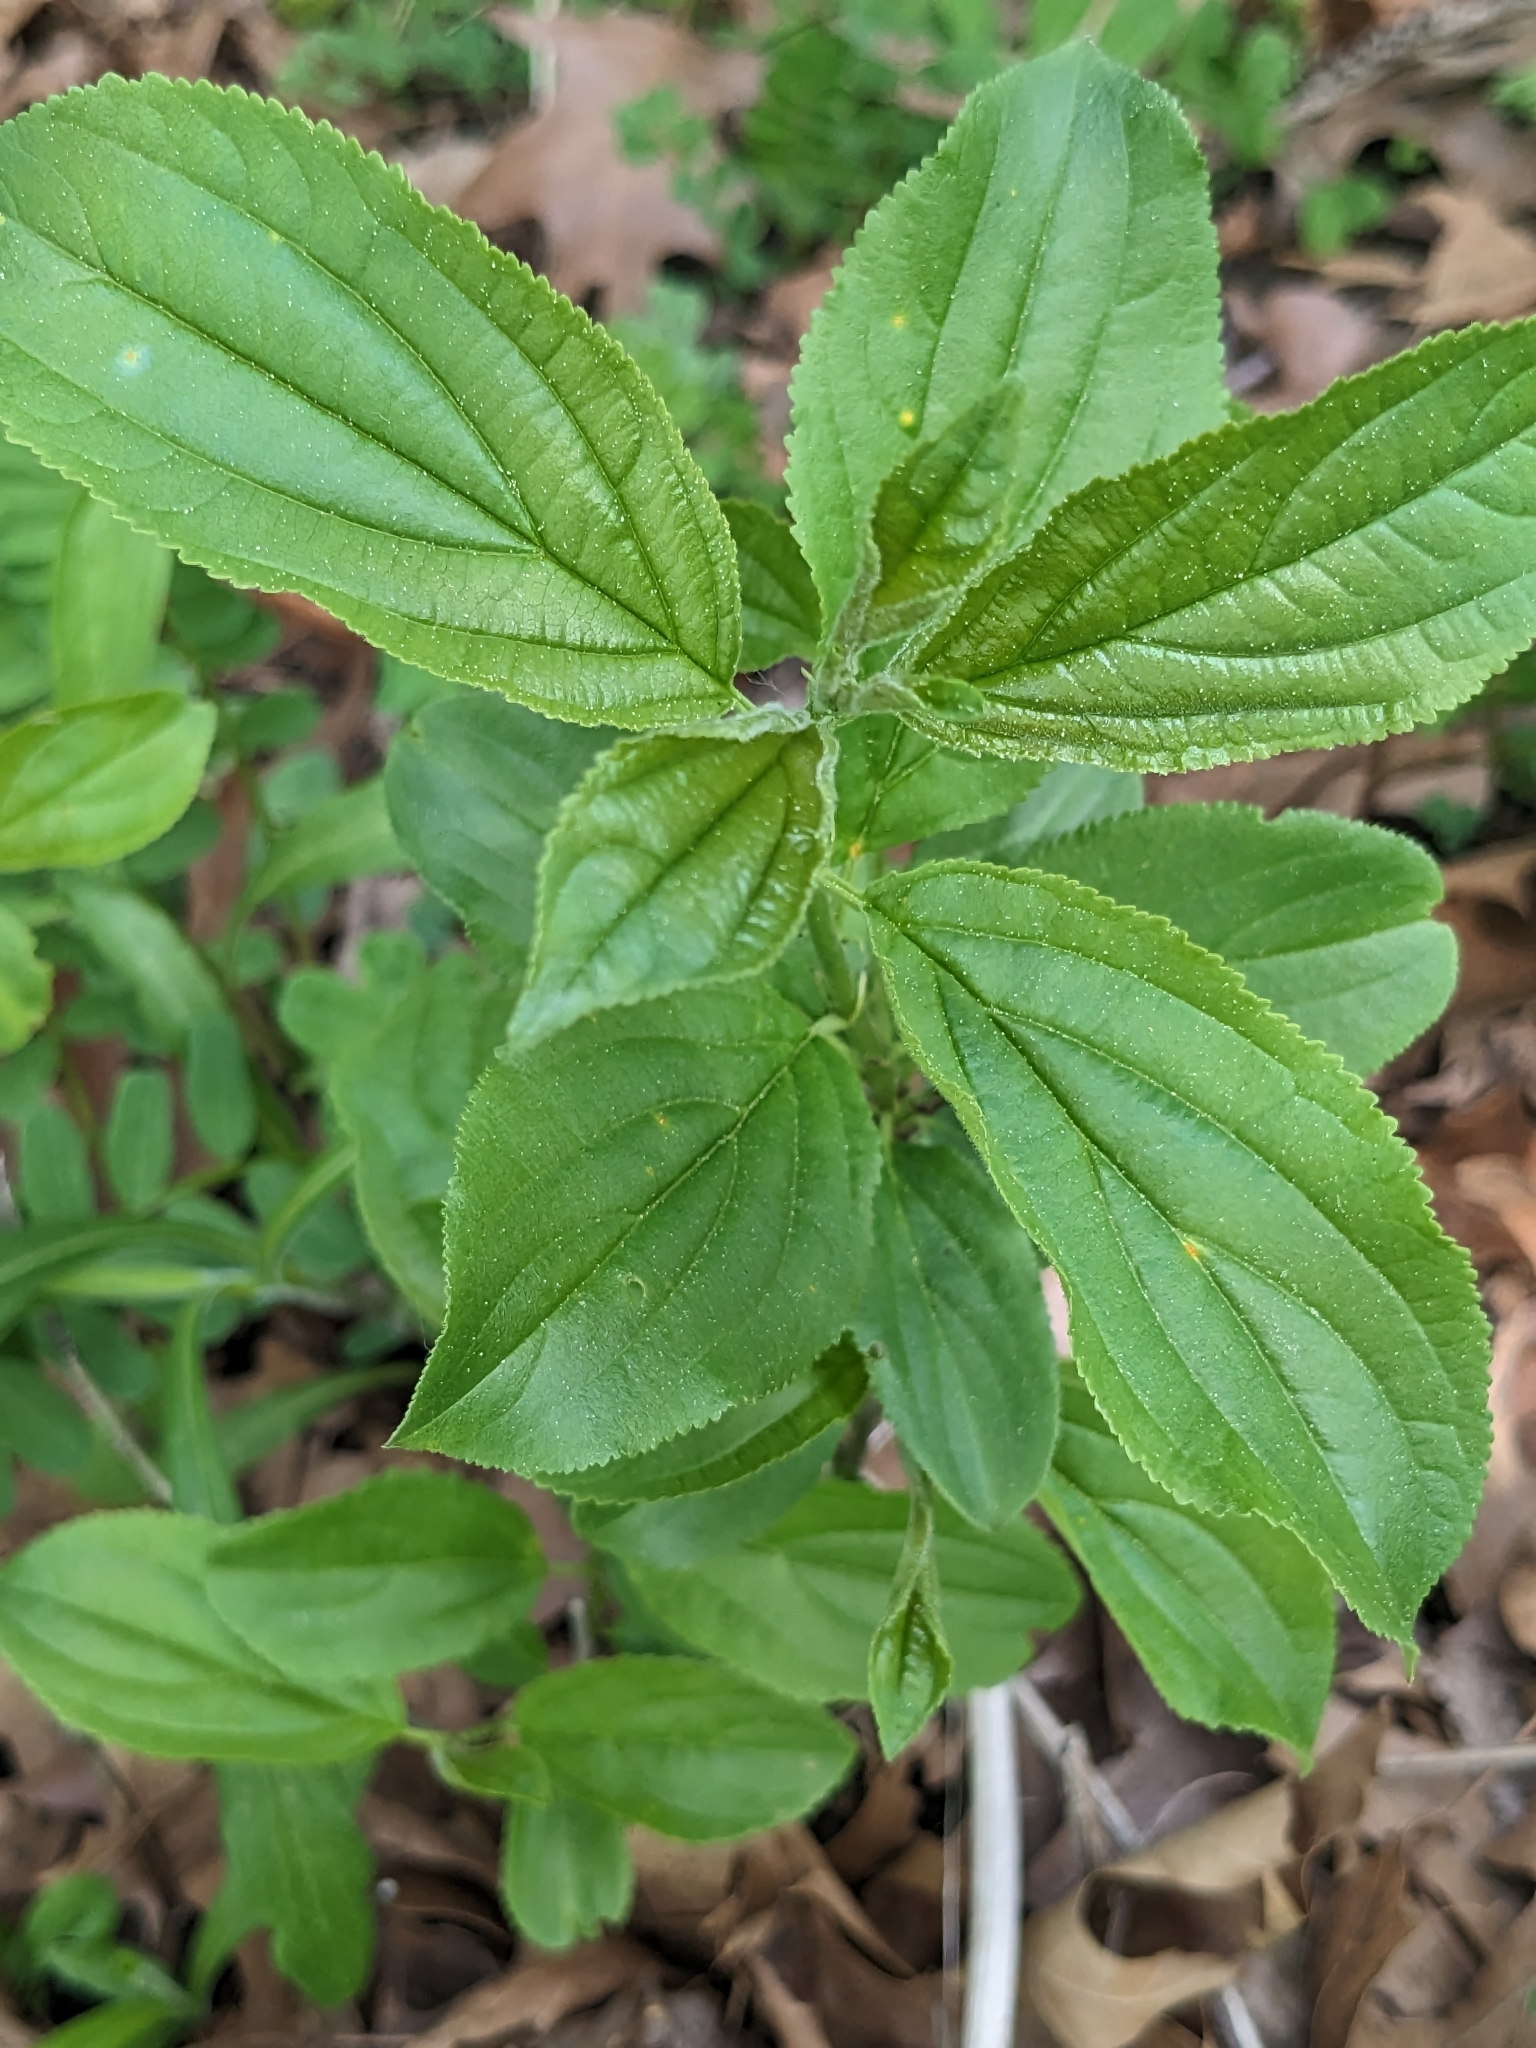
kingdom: Plantae
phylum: Tracheophyta
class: Magnoliopsida
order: Rosales
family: Rhamnaceae
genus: Rhamnus
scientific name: Rhamnus cathartica
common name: Common buckthorn
